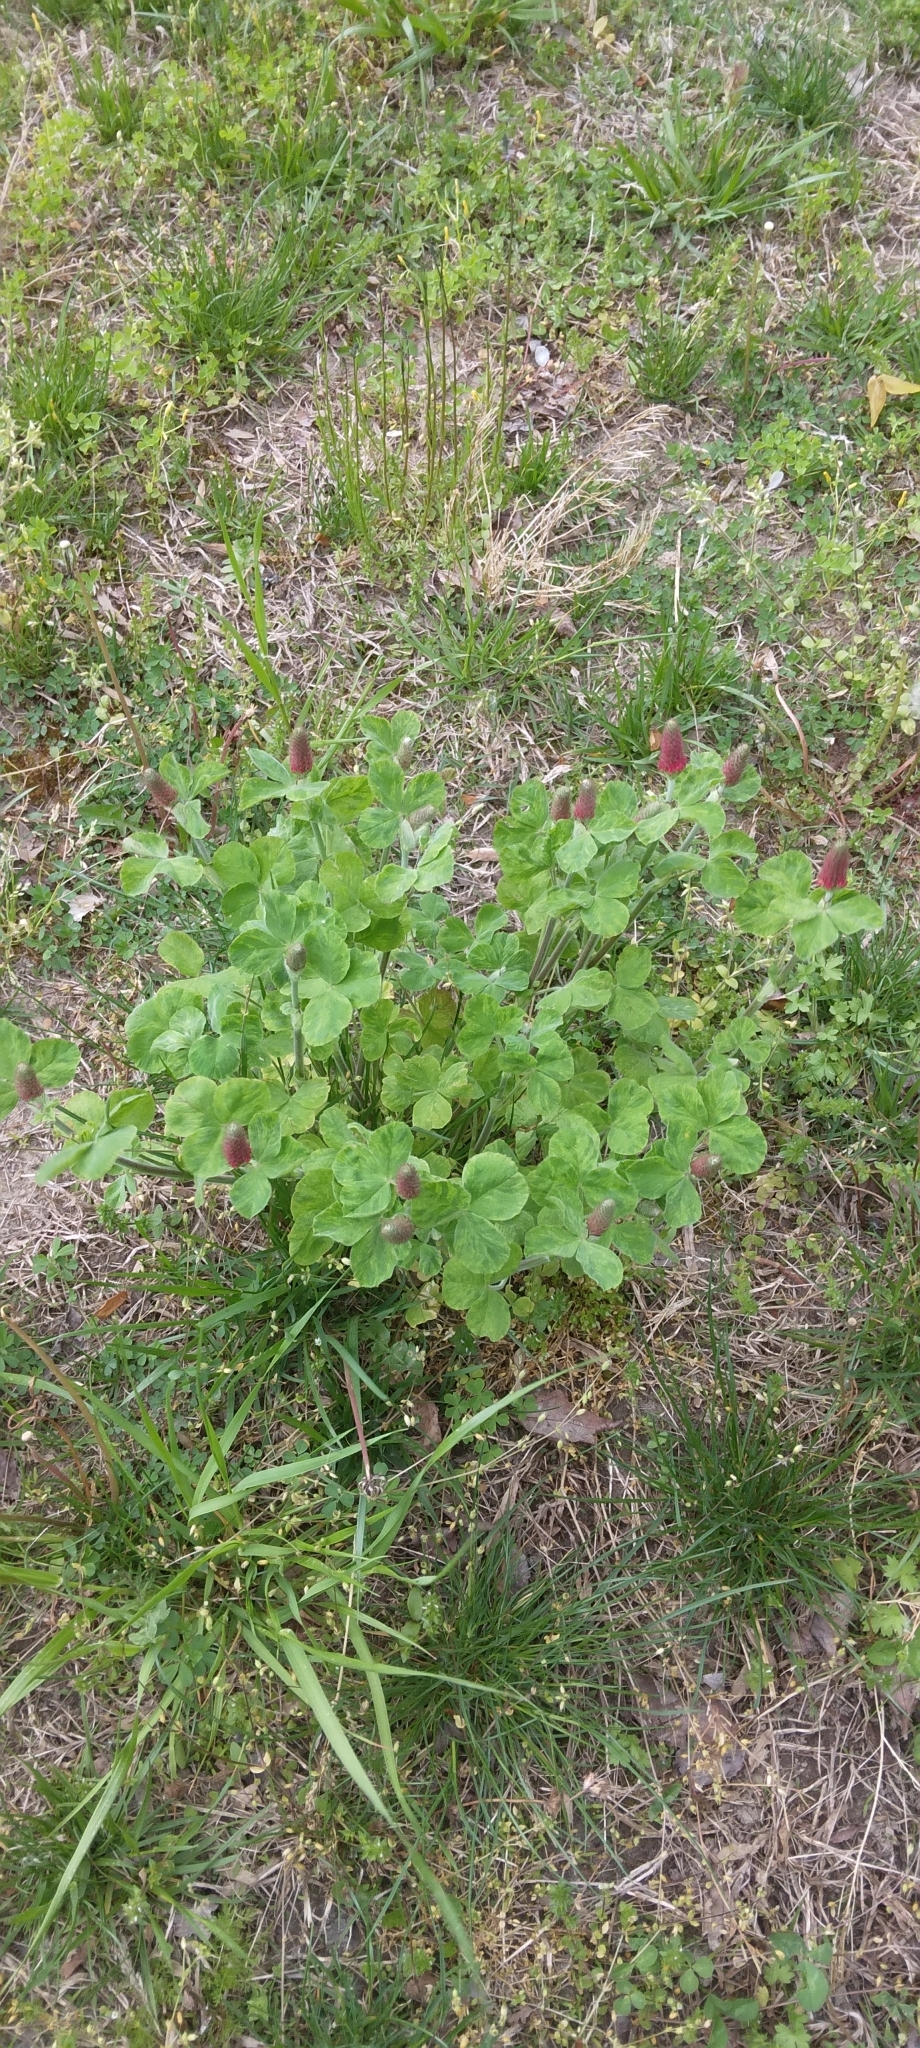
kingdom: Plantae
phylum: Tracheophyta
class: Magnoliopsida
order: Fabales
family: Fabaceae
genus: Trifolium
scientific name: Trifolium incarnatum
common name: Crimson clover
